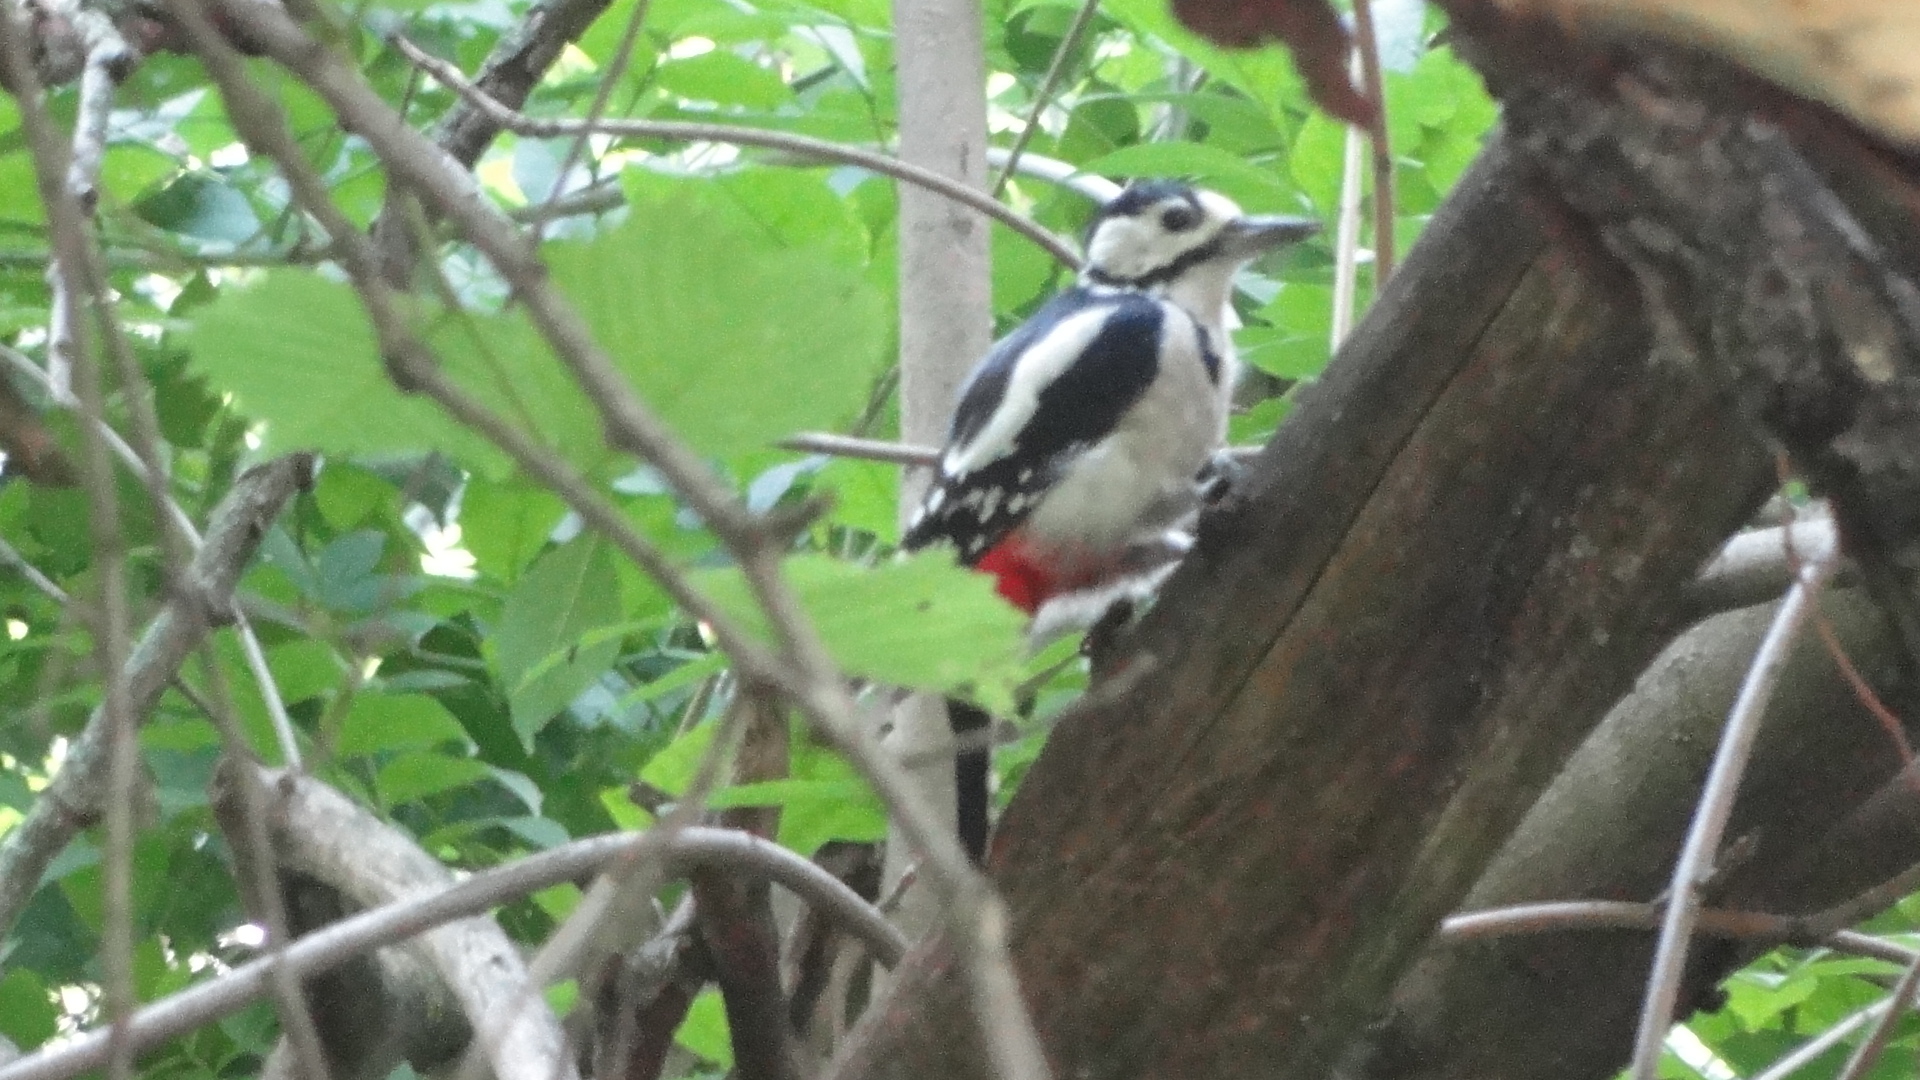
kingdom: Animalia
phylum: Chordata
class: Aves
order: Piciformes
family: Picidae
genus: Dendrocopos
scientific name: Dendrocopos major
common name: Great spotted woodpecker
